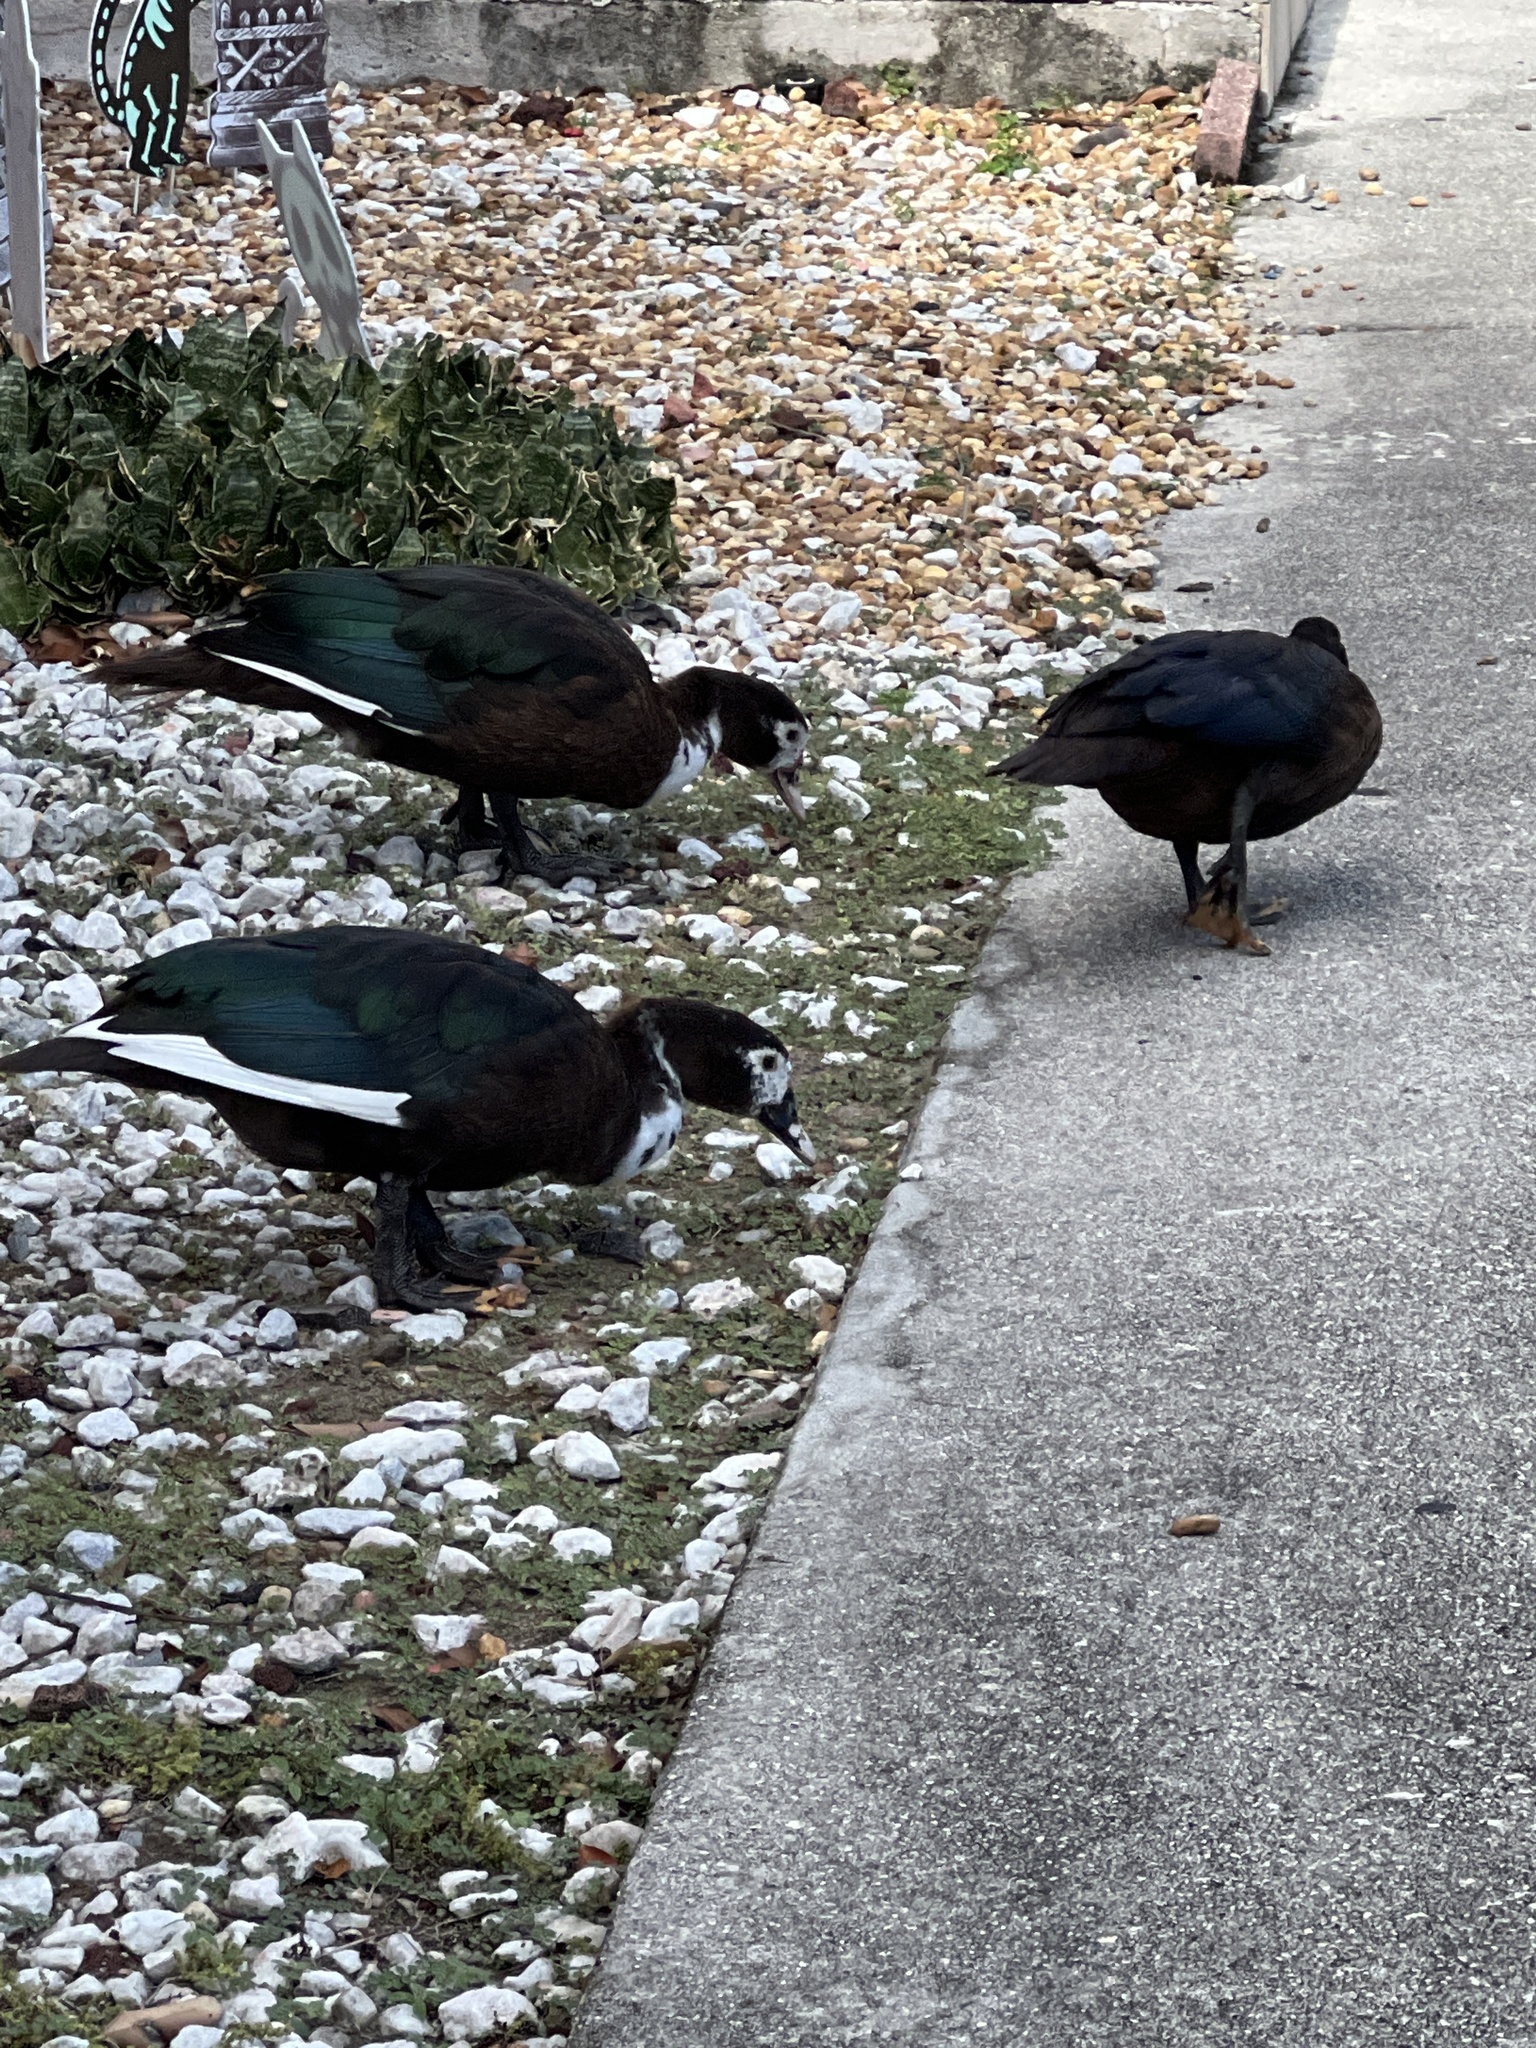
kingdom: Animalia
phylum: Chordata
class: Aves
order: Anseriformes
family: Anatidae
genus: Cairina
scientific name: Cairina moschata
